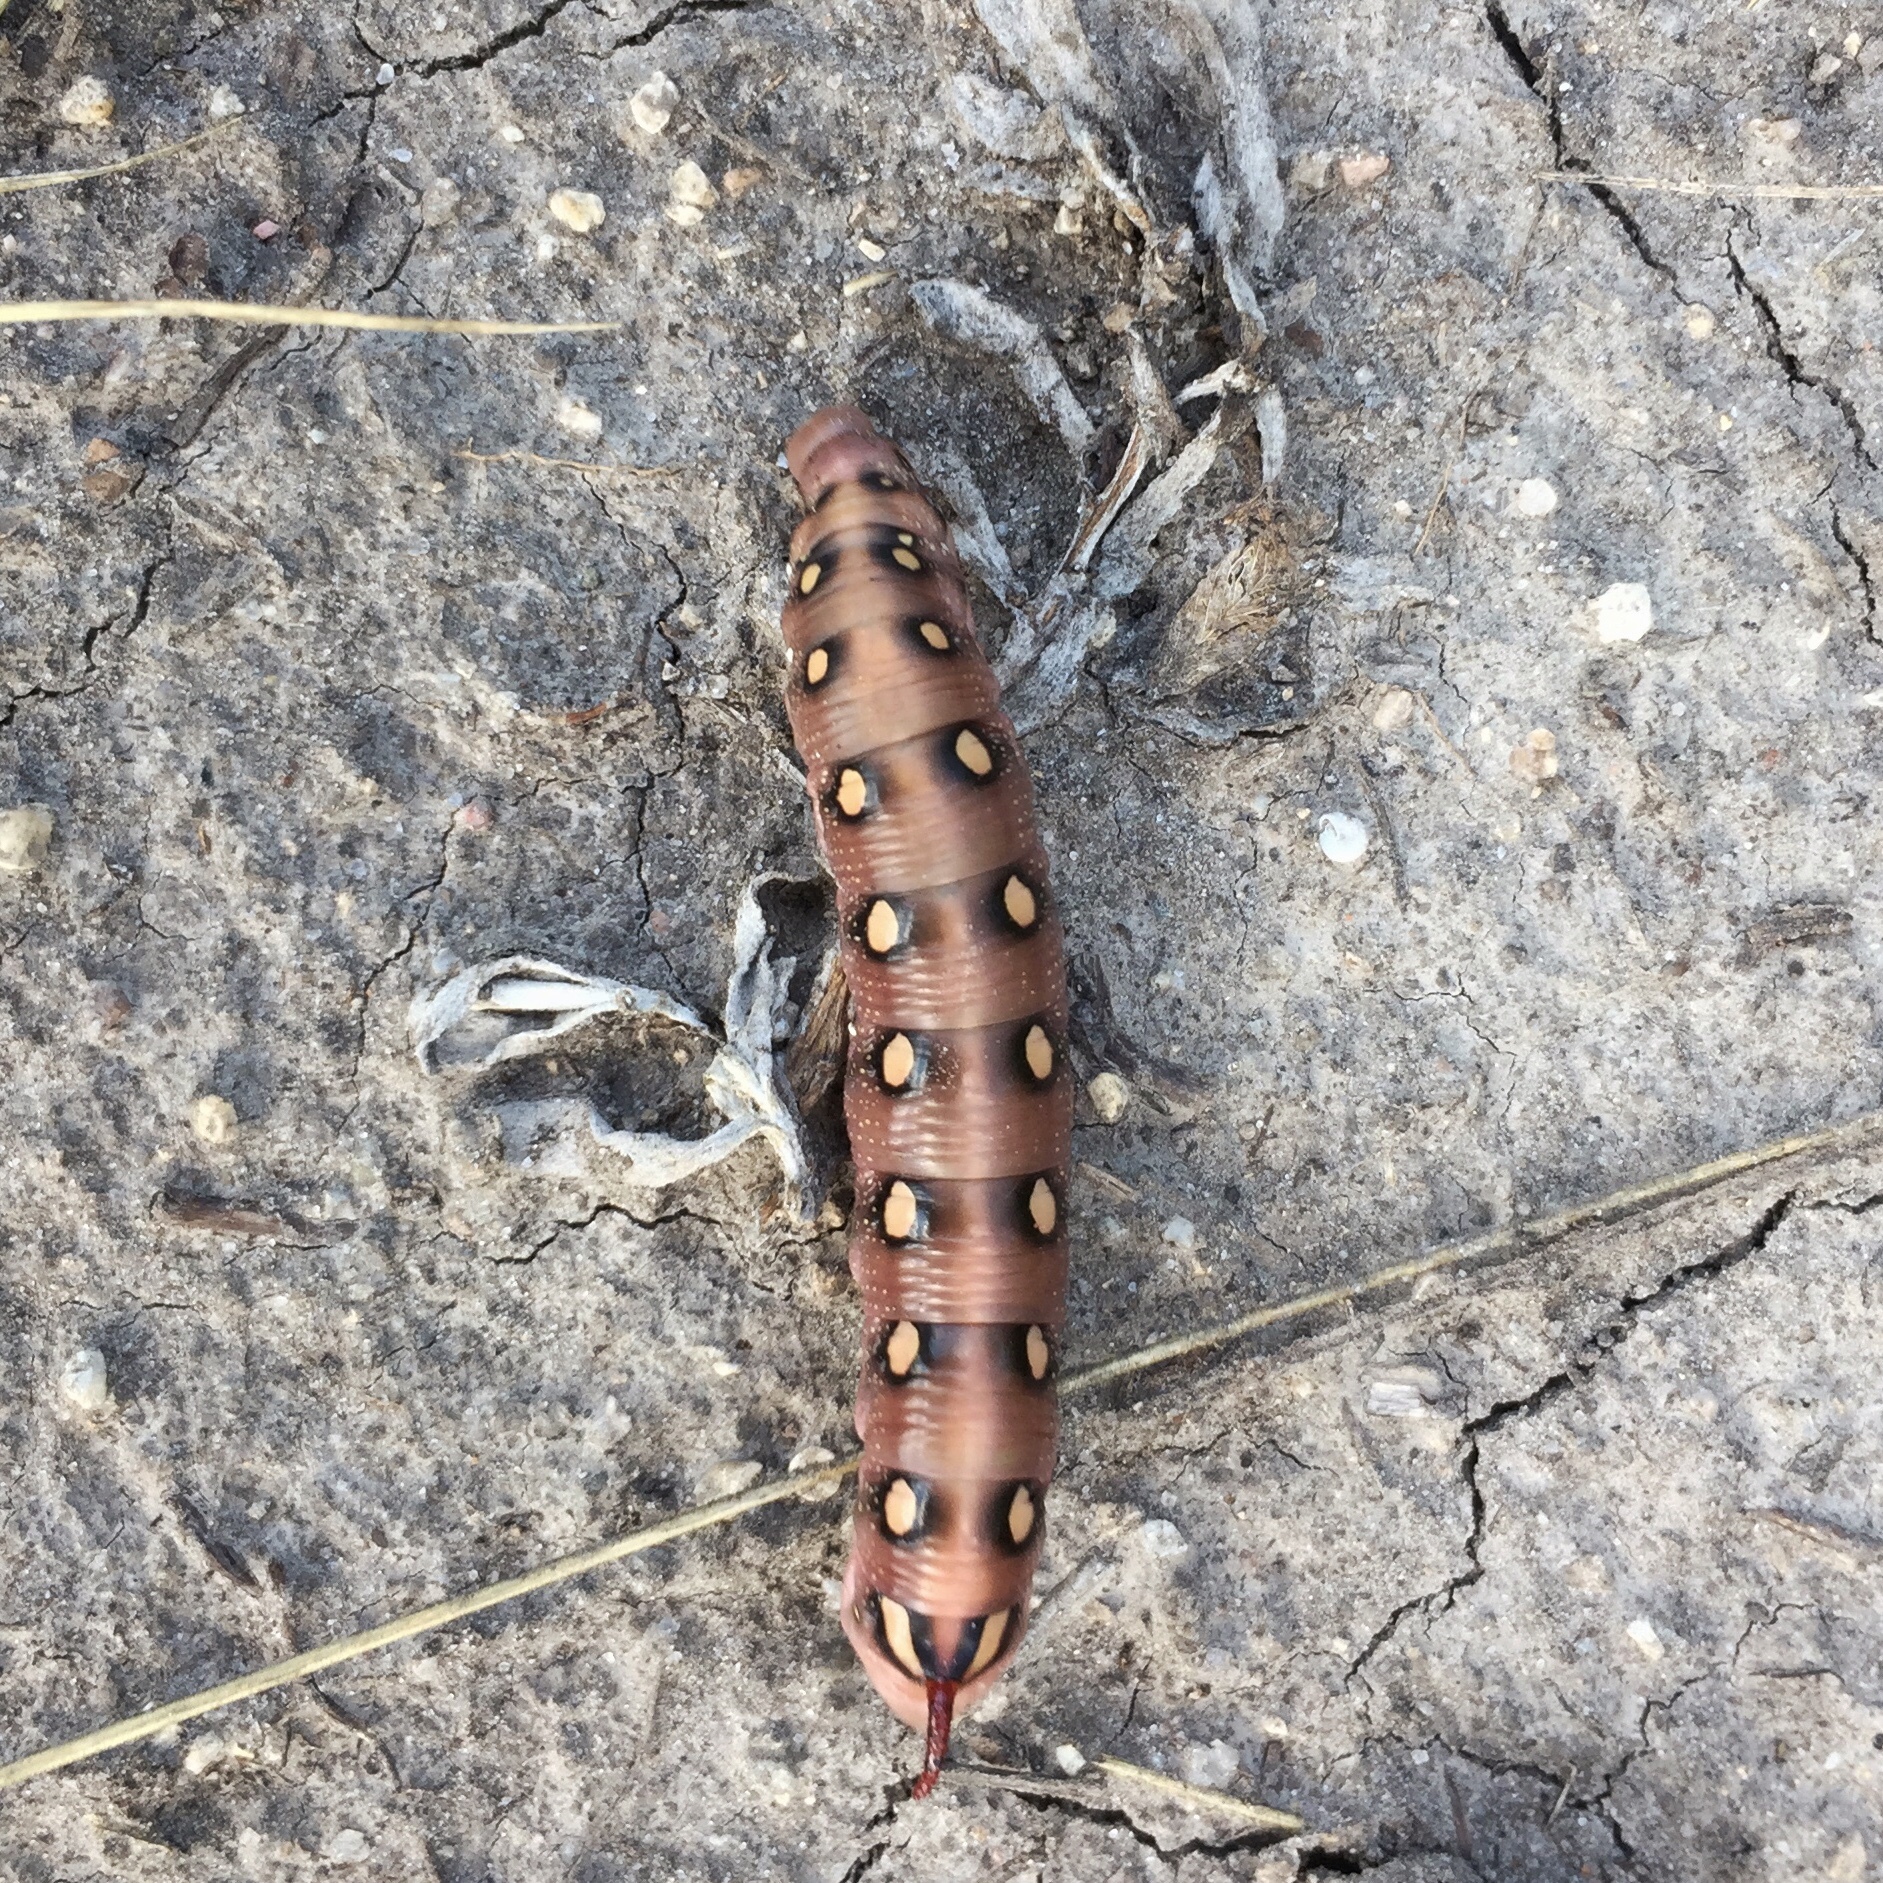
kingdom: Animalia
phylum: Arthropoda
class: Insecta
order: Lepidoptera
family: Sphingidae
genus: Hyles
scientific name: Hyles gallii
